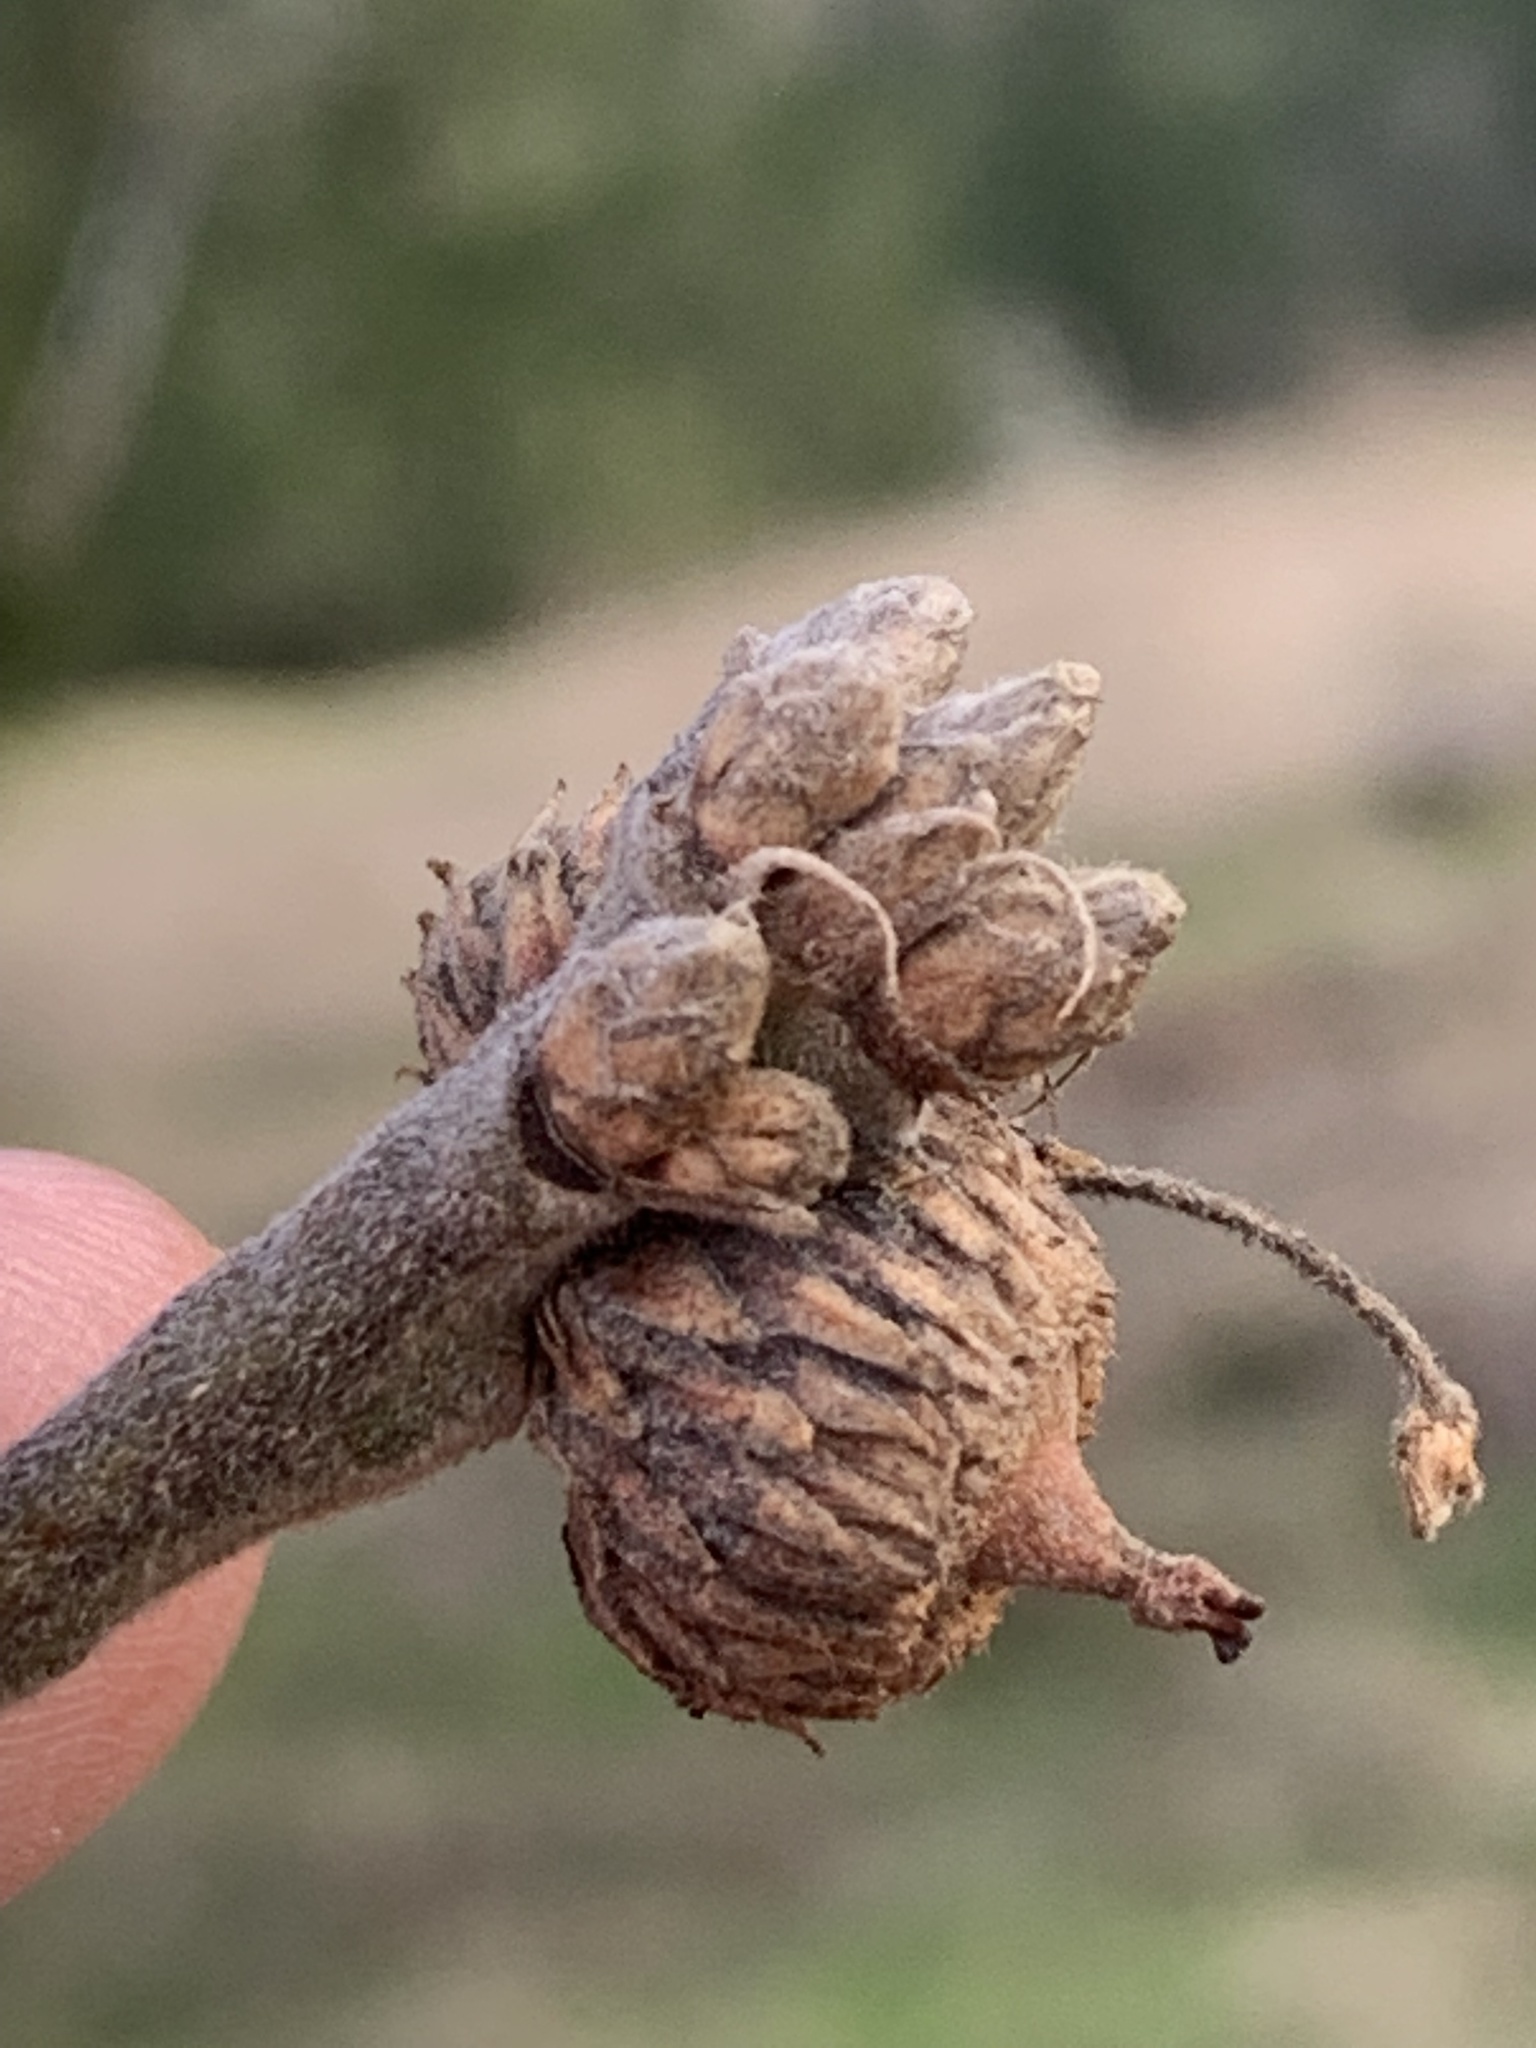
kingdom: Plantae
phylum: Tracheophyta
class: Magnoliopsida
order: Fagales
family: Fagaceae
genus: Quercus
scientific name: Quercus garryana
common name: Garry oak
